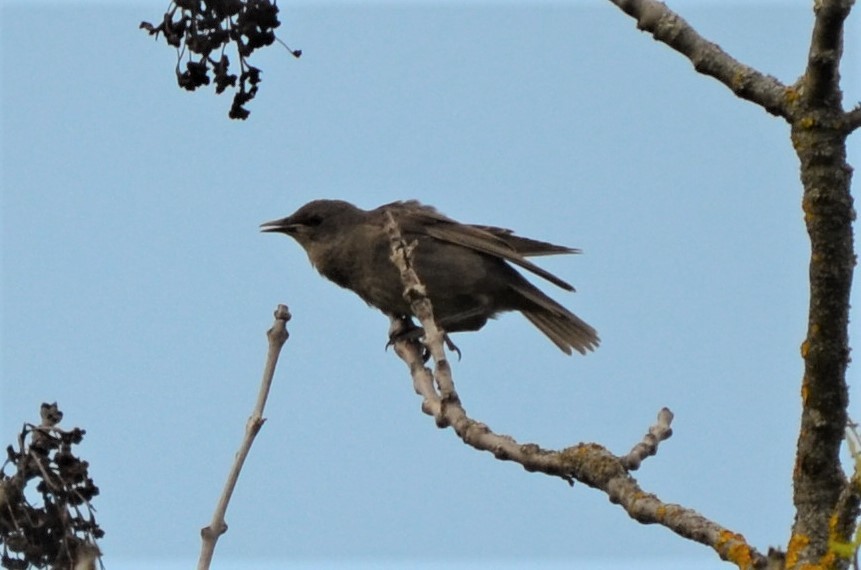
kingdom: Animalia
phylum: Chordata
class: Aves
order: Passeriformes
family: Sturnidae
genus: Sturnus
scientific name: Sturnus vulgaris
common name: Common starling
